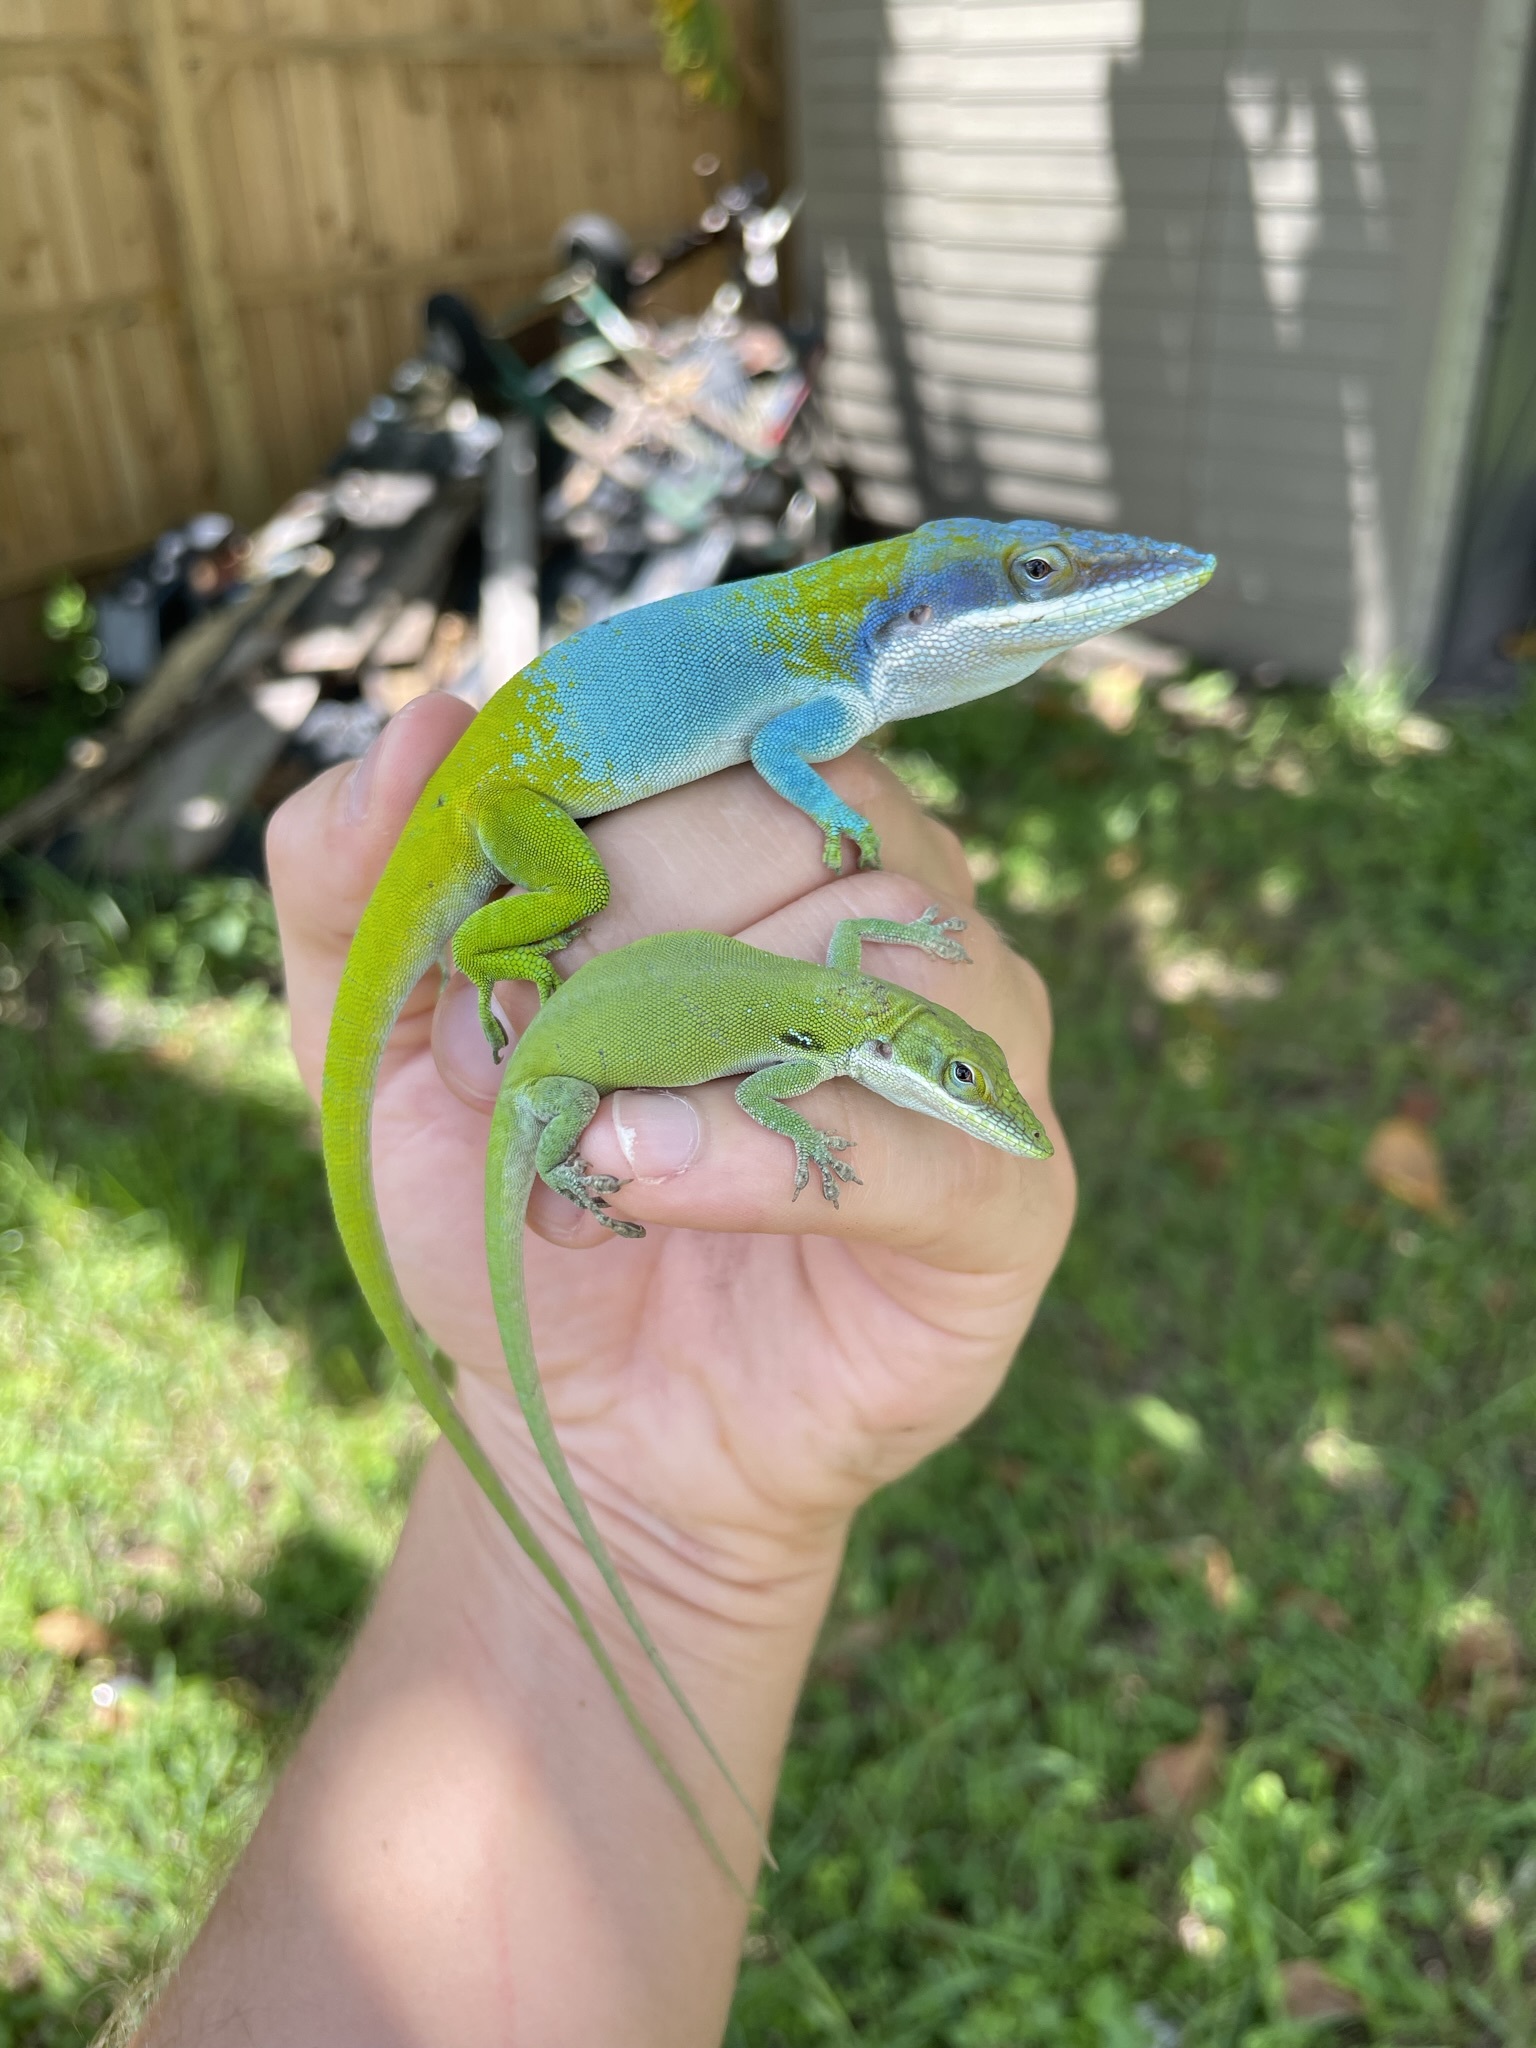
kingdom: Animalia
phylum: Chordata
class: Squamata
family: Dactyloidae
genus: Anolis
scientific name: Anolis allisoni
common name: Allison's anole
